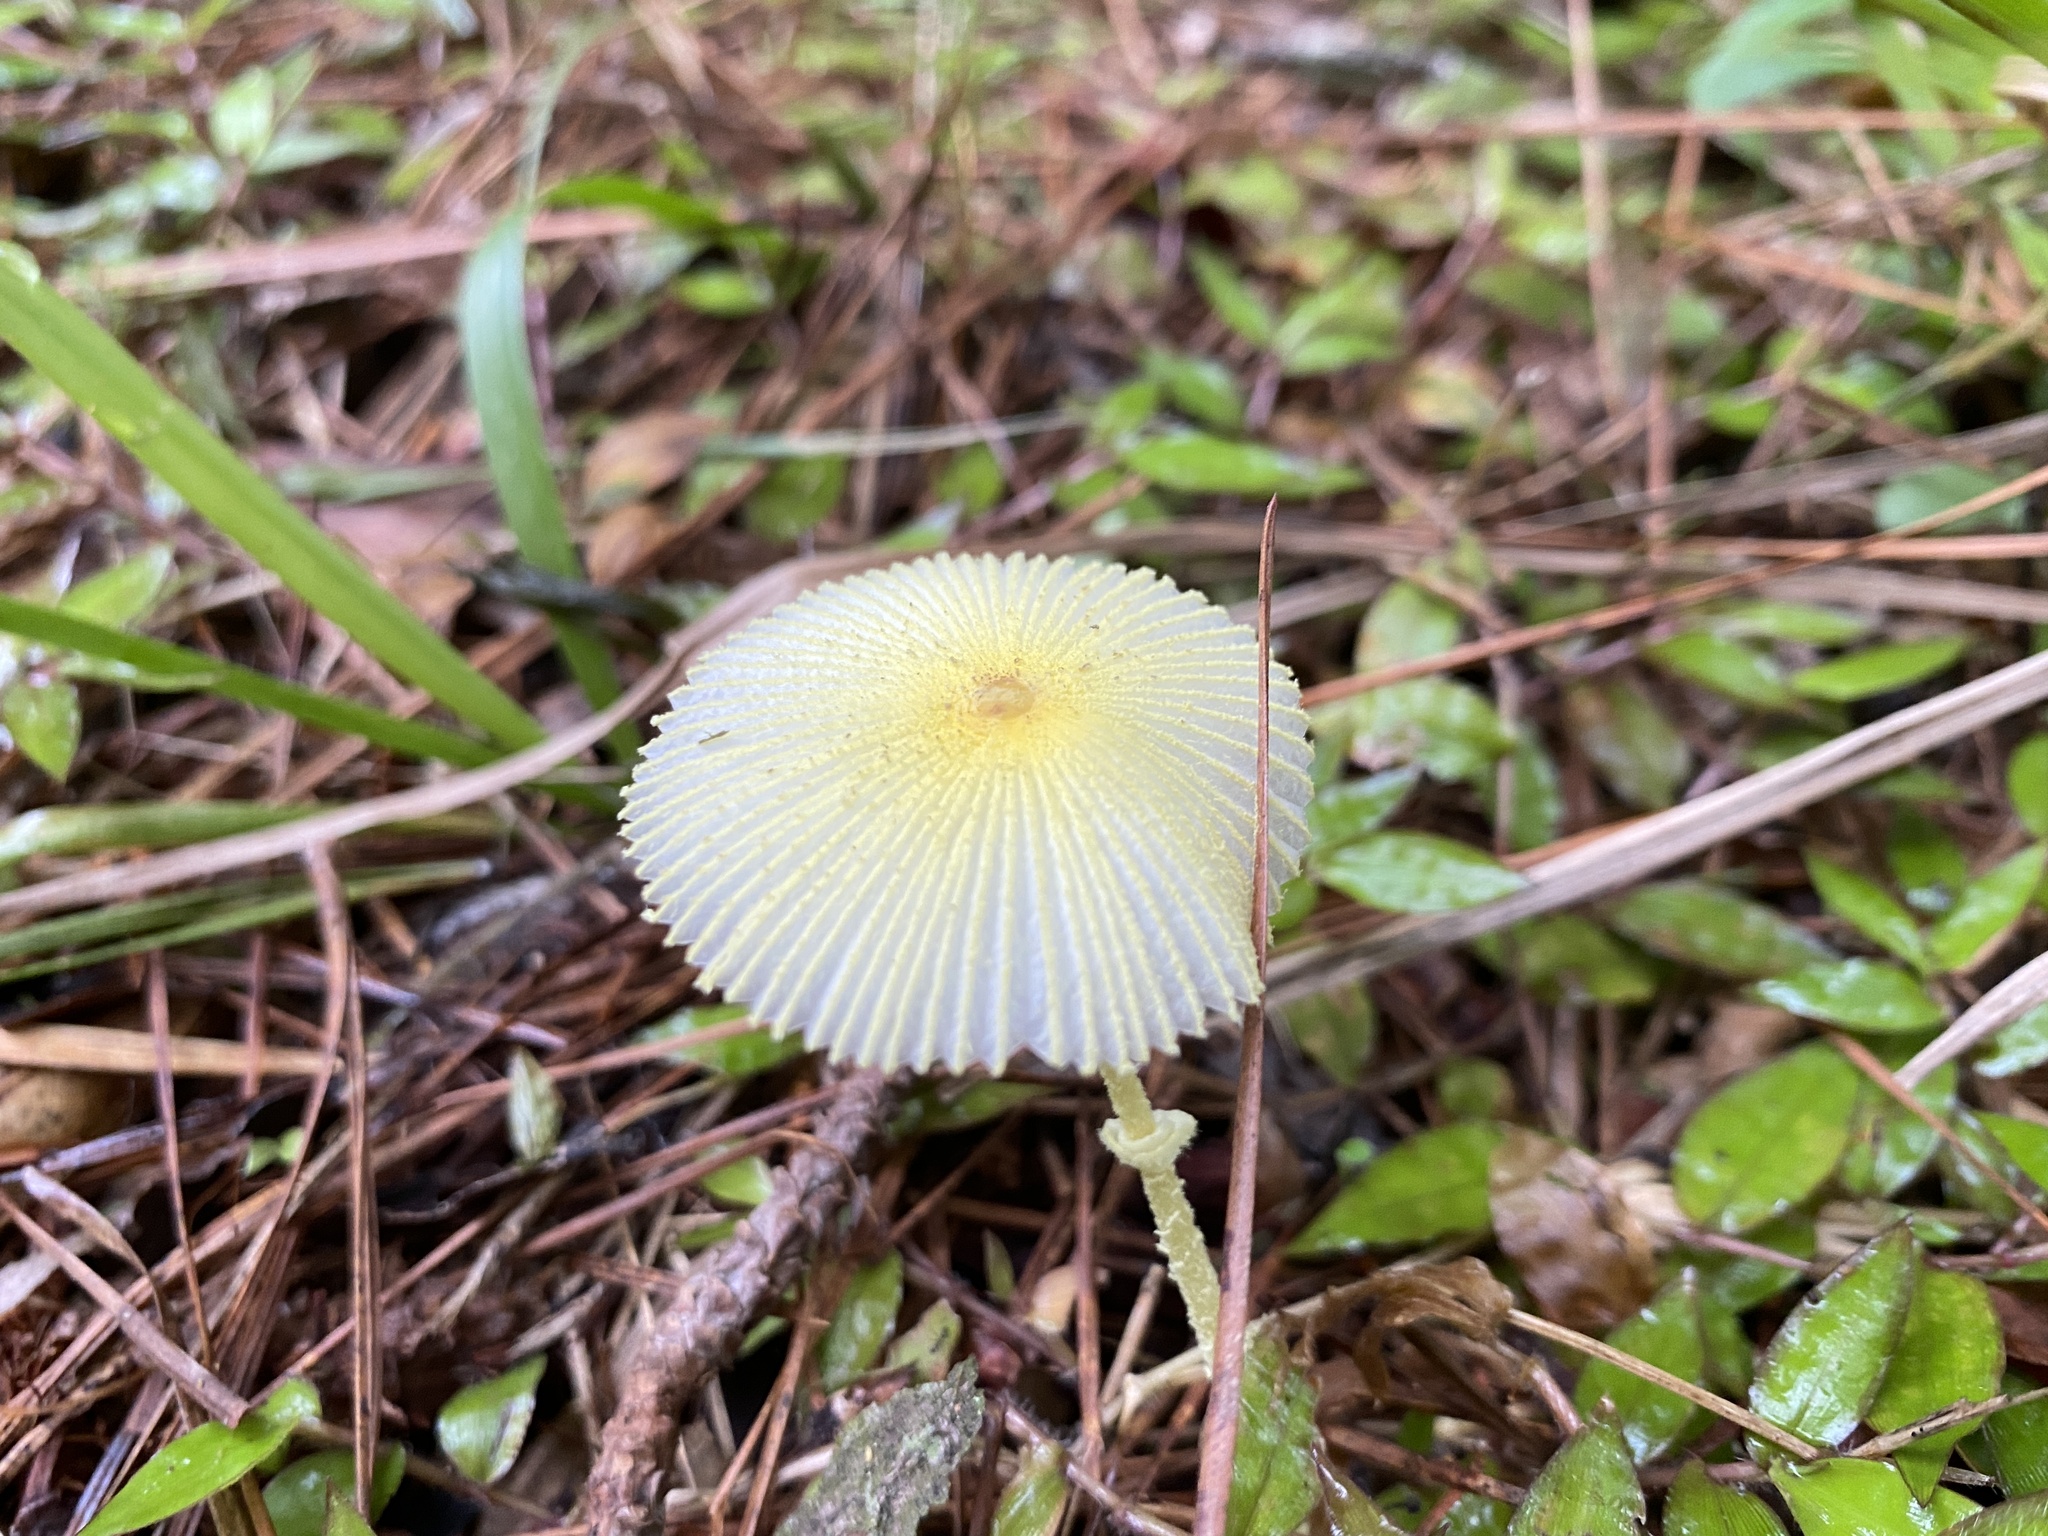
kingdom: Fungi
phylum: Basidiomycota
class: Agaricomycetes
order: Agaricales
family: Agaricaceae
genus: Leucocoprinus
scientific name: Leucocoprinus fragilissimus
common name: Fragile dapperling
